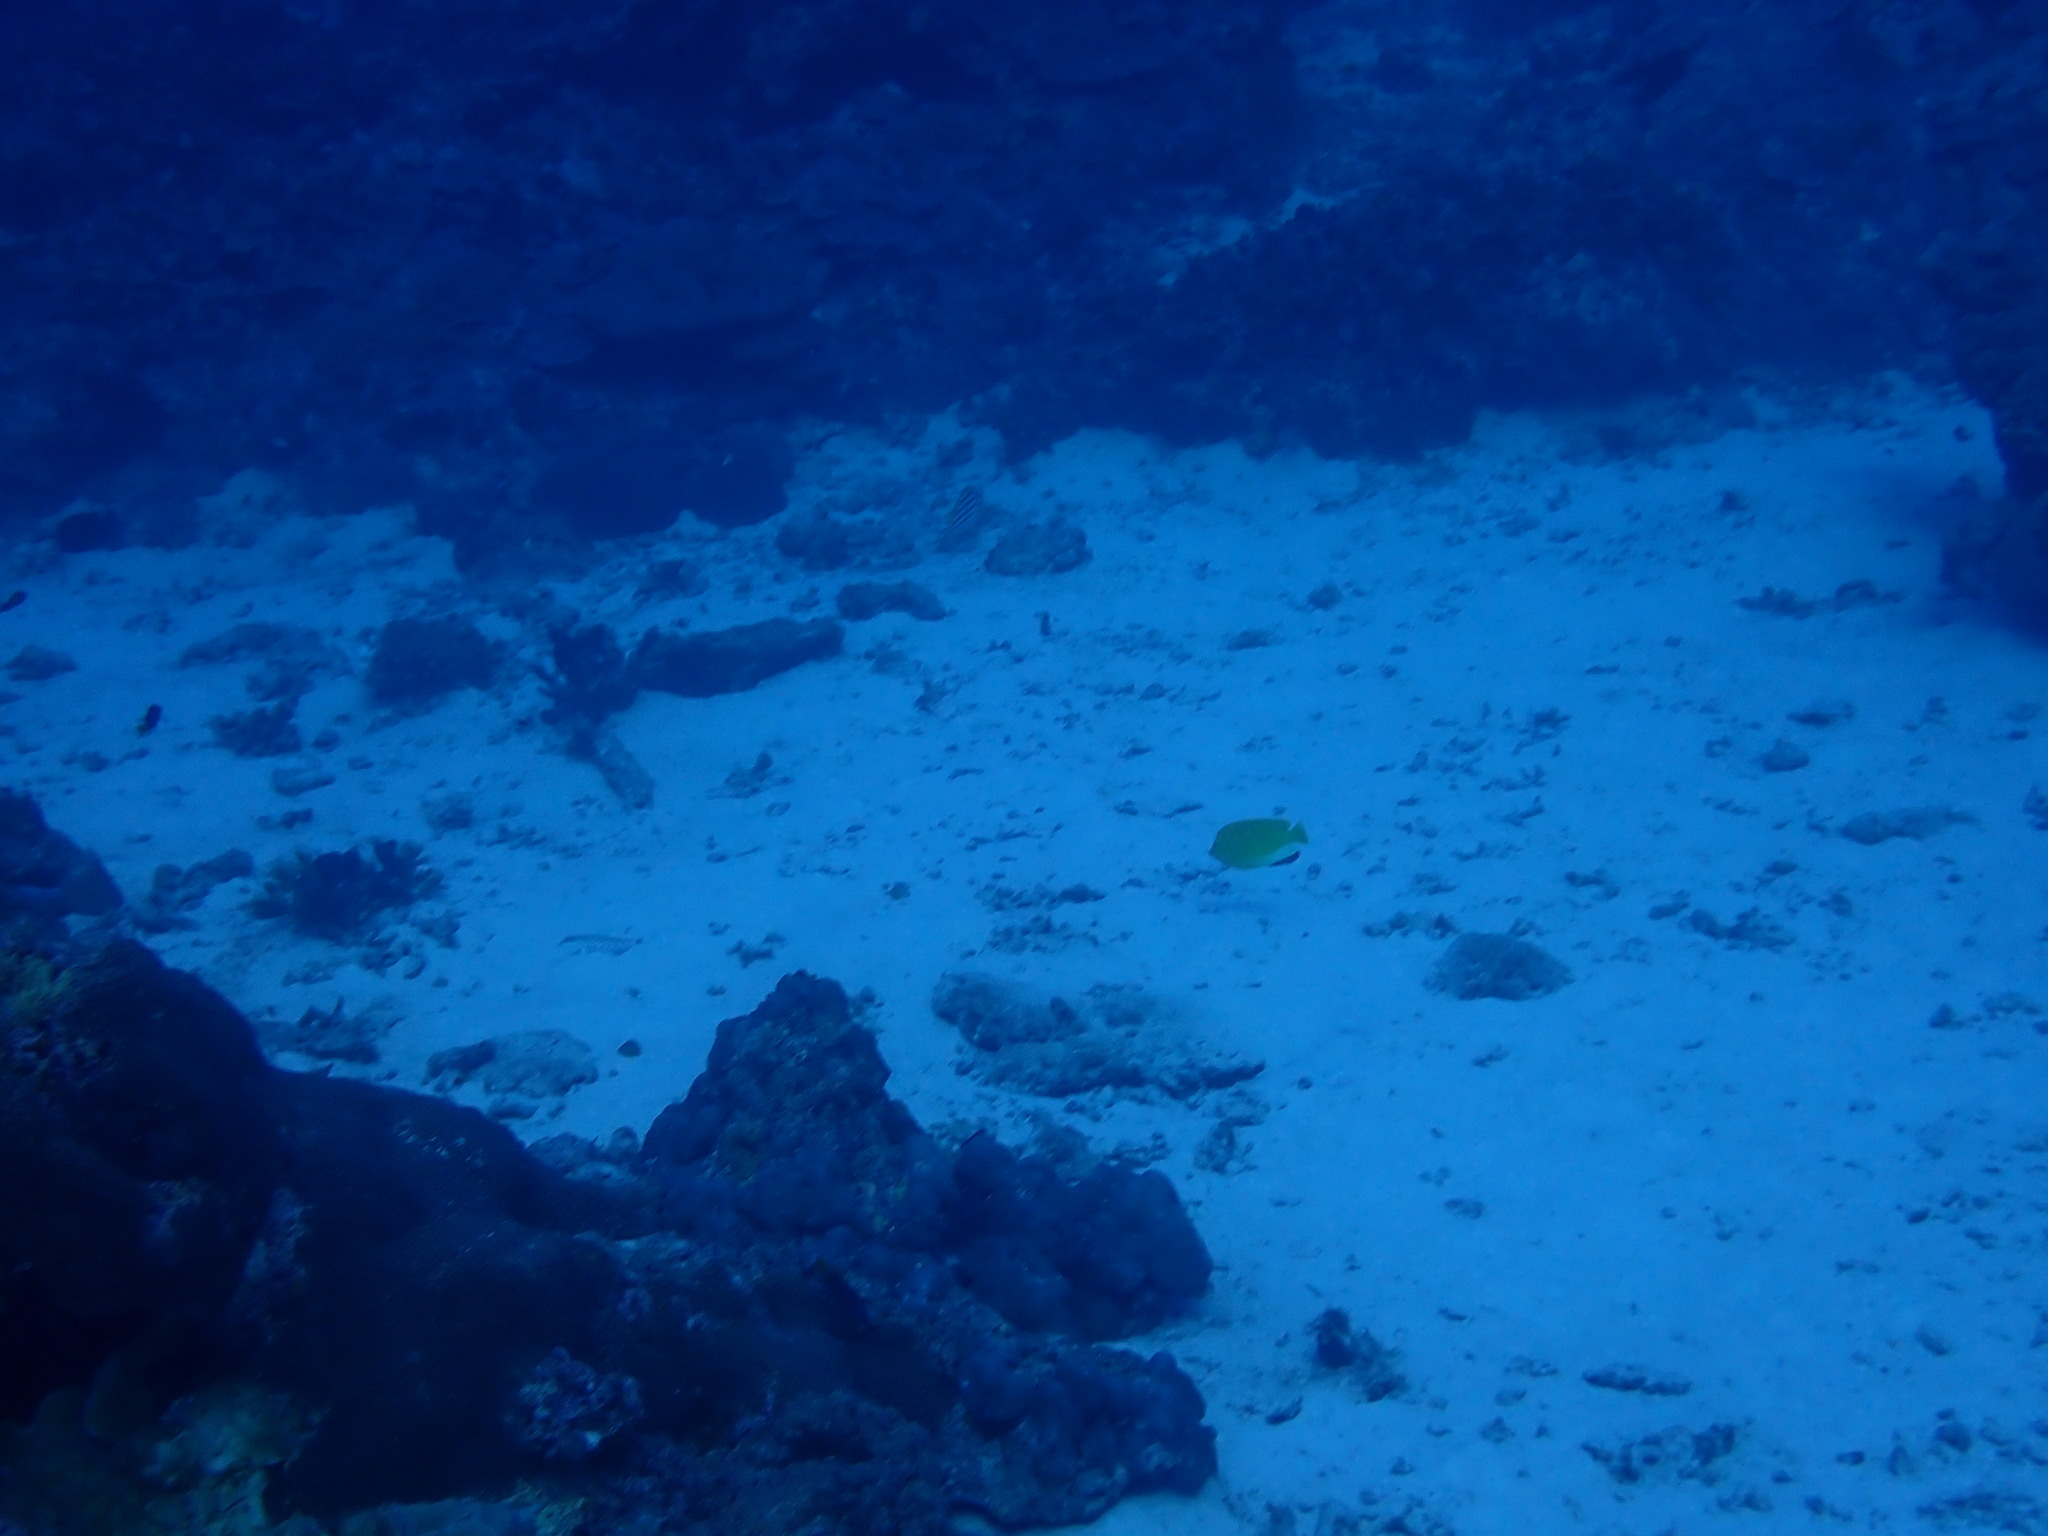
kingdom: Animalia
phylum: Chordata
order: Perciformes
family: Pomacanthidae
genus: Apolemichthys
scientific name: Apolemichthys trimaculatus
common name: Threespot angelfish
